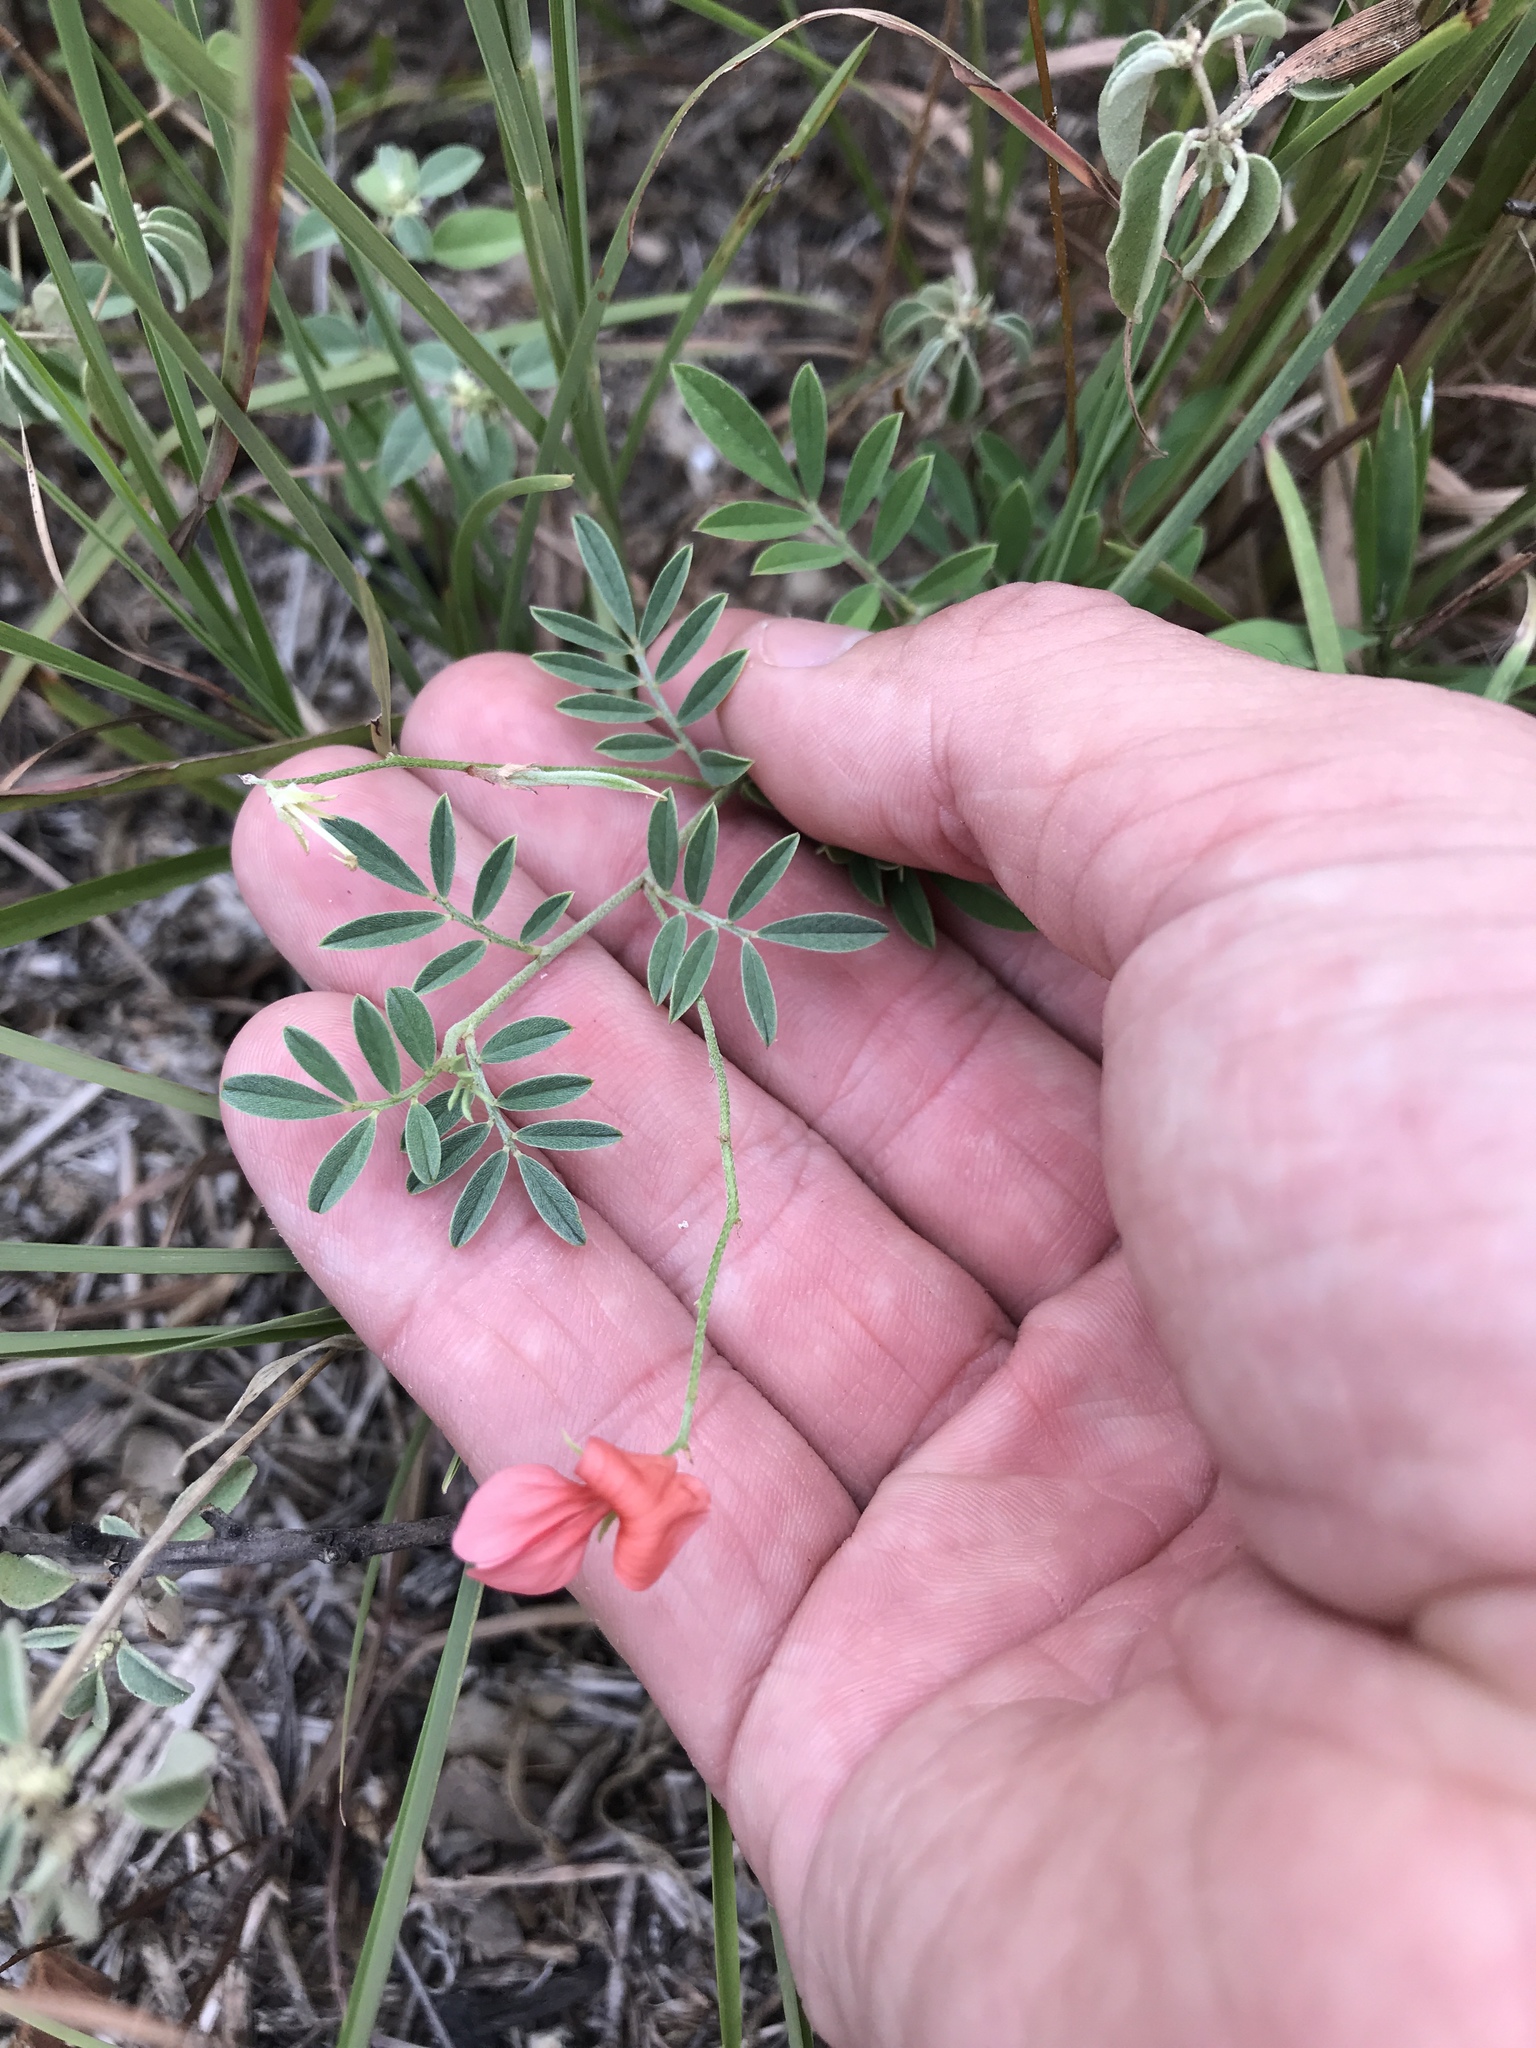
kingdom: Plantae
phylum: Tracheophyta
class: Magnoliopsida
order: Fabales
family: Fabaceae
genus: Indigofera
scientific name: Indigofera miniata
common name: Coast indigo
